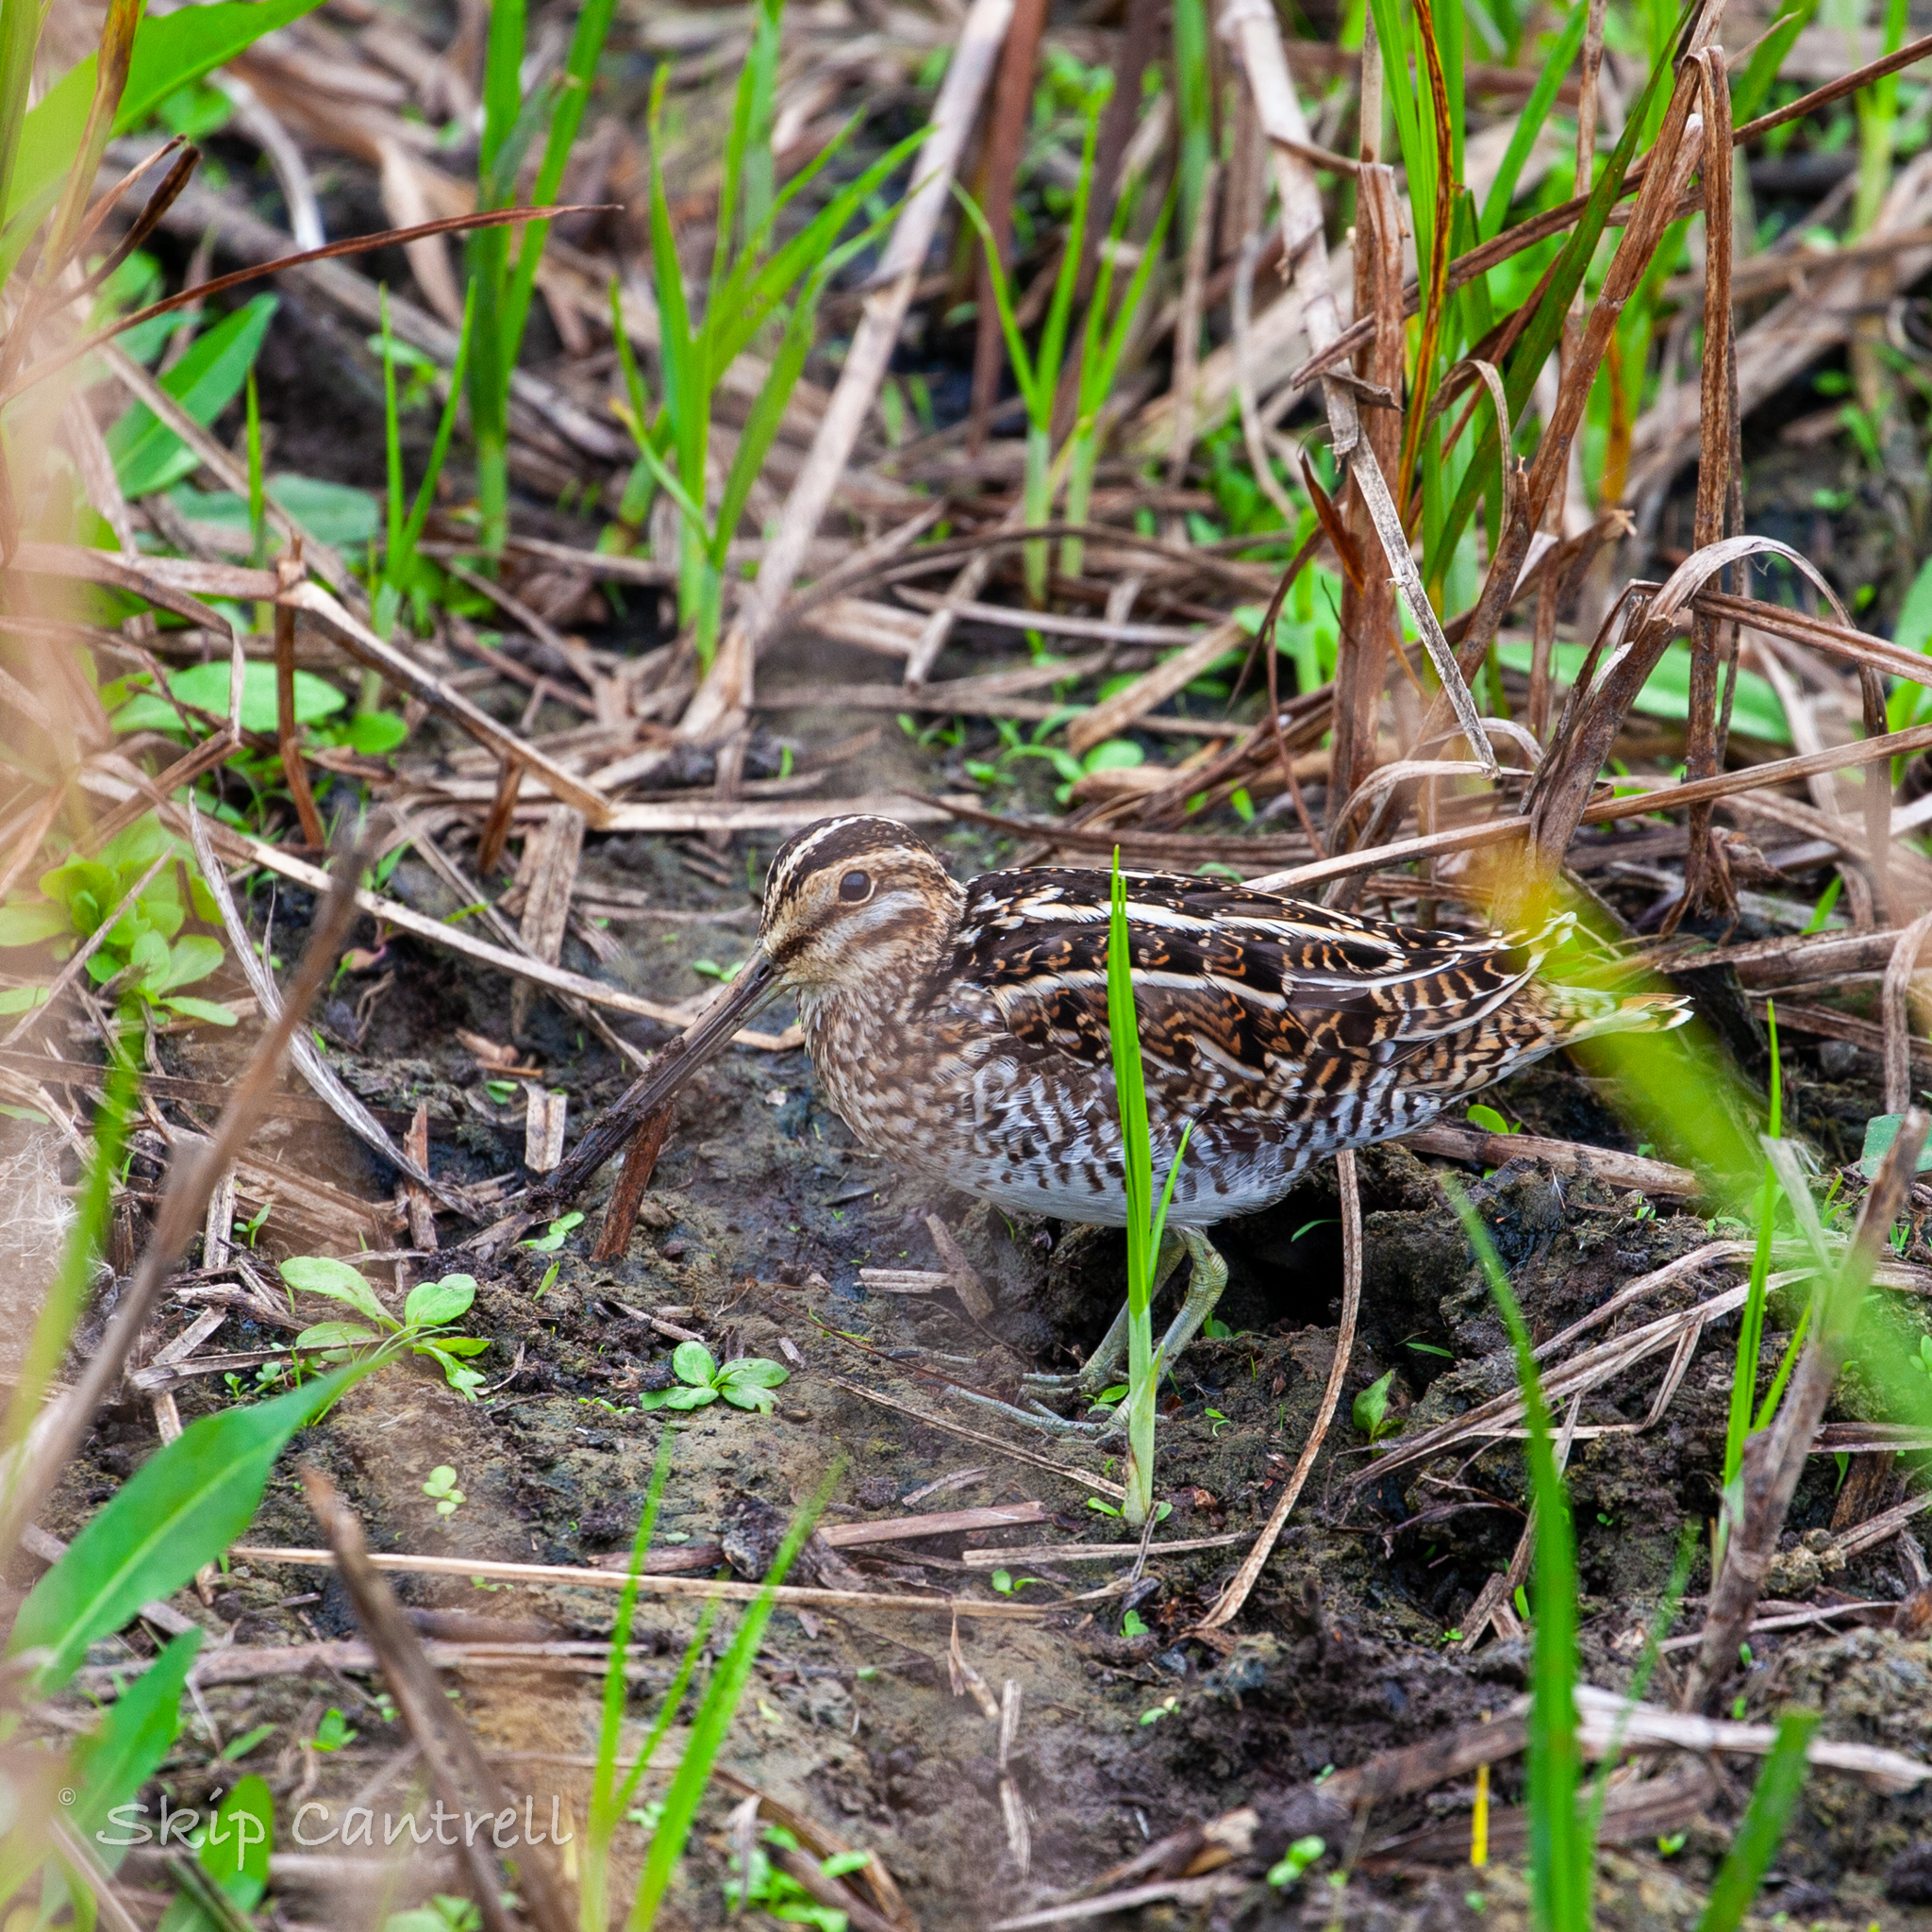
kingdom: Animalia
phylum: Chordata
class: Aves
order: Charadriiformes
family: Scolopacidae
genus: Gallinago
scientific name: Gallinago delicata
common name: Wilson's snipe
